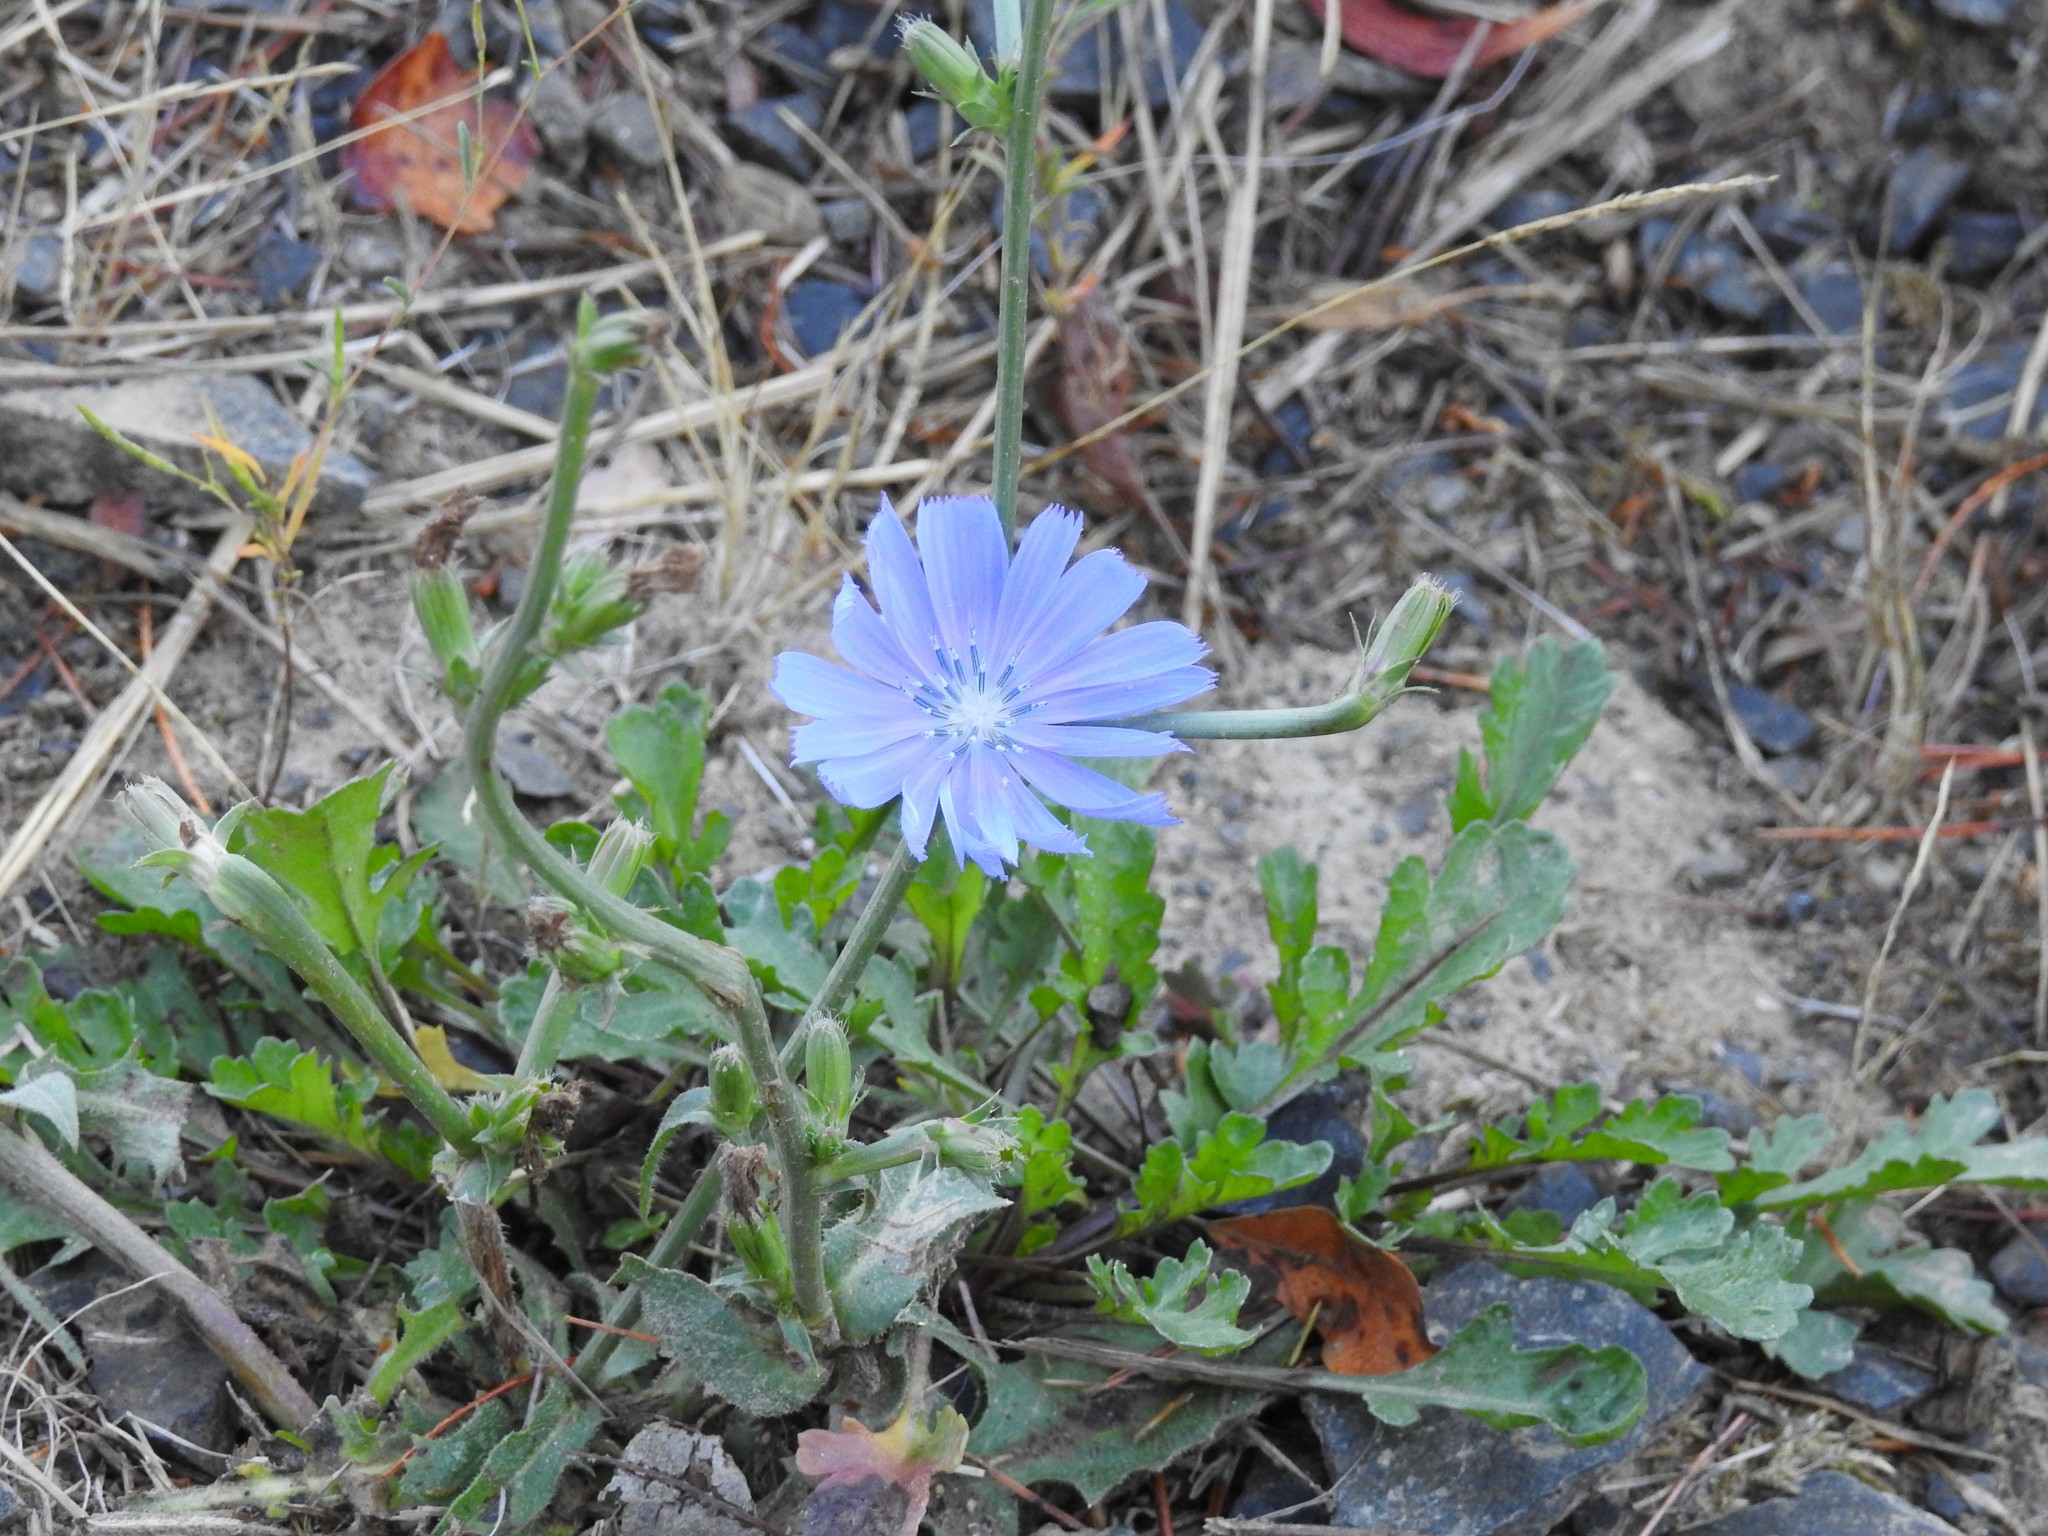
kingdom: Plantae
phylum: Tracheophyta
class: Magnoliopsida
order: Asterales
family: Asteraceae
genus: Cichorium
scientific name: Cichorium intybus
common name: Chicory
